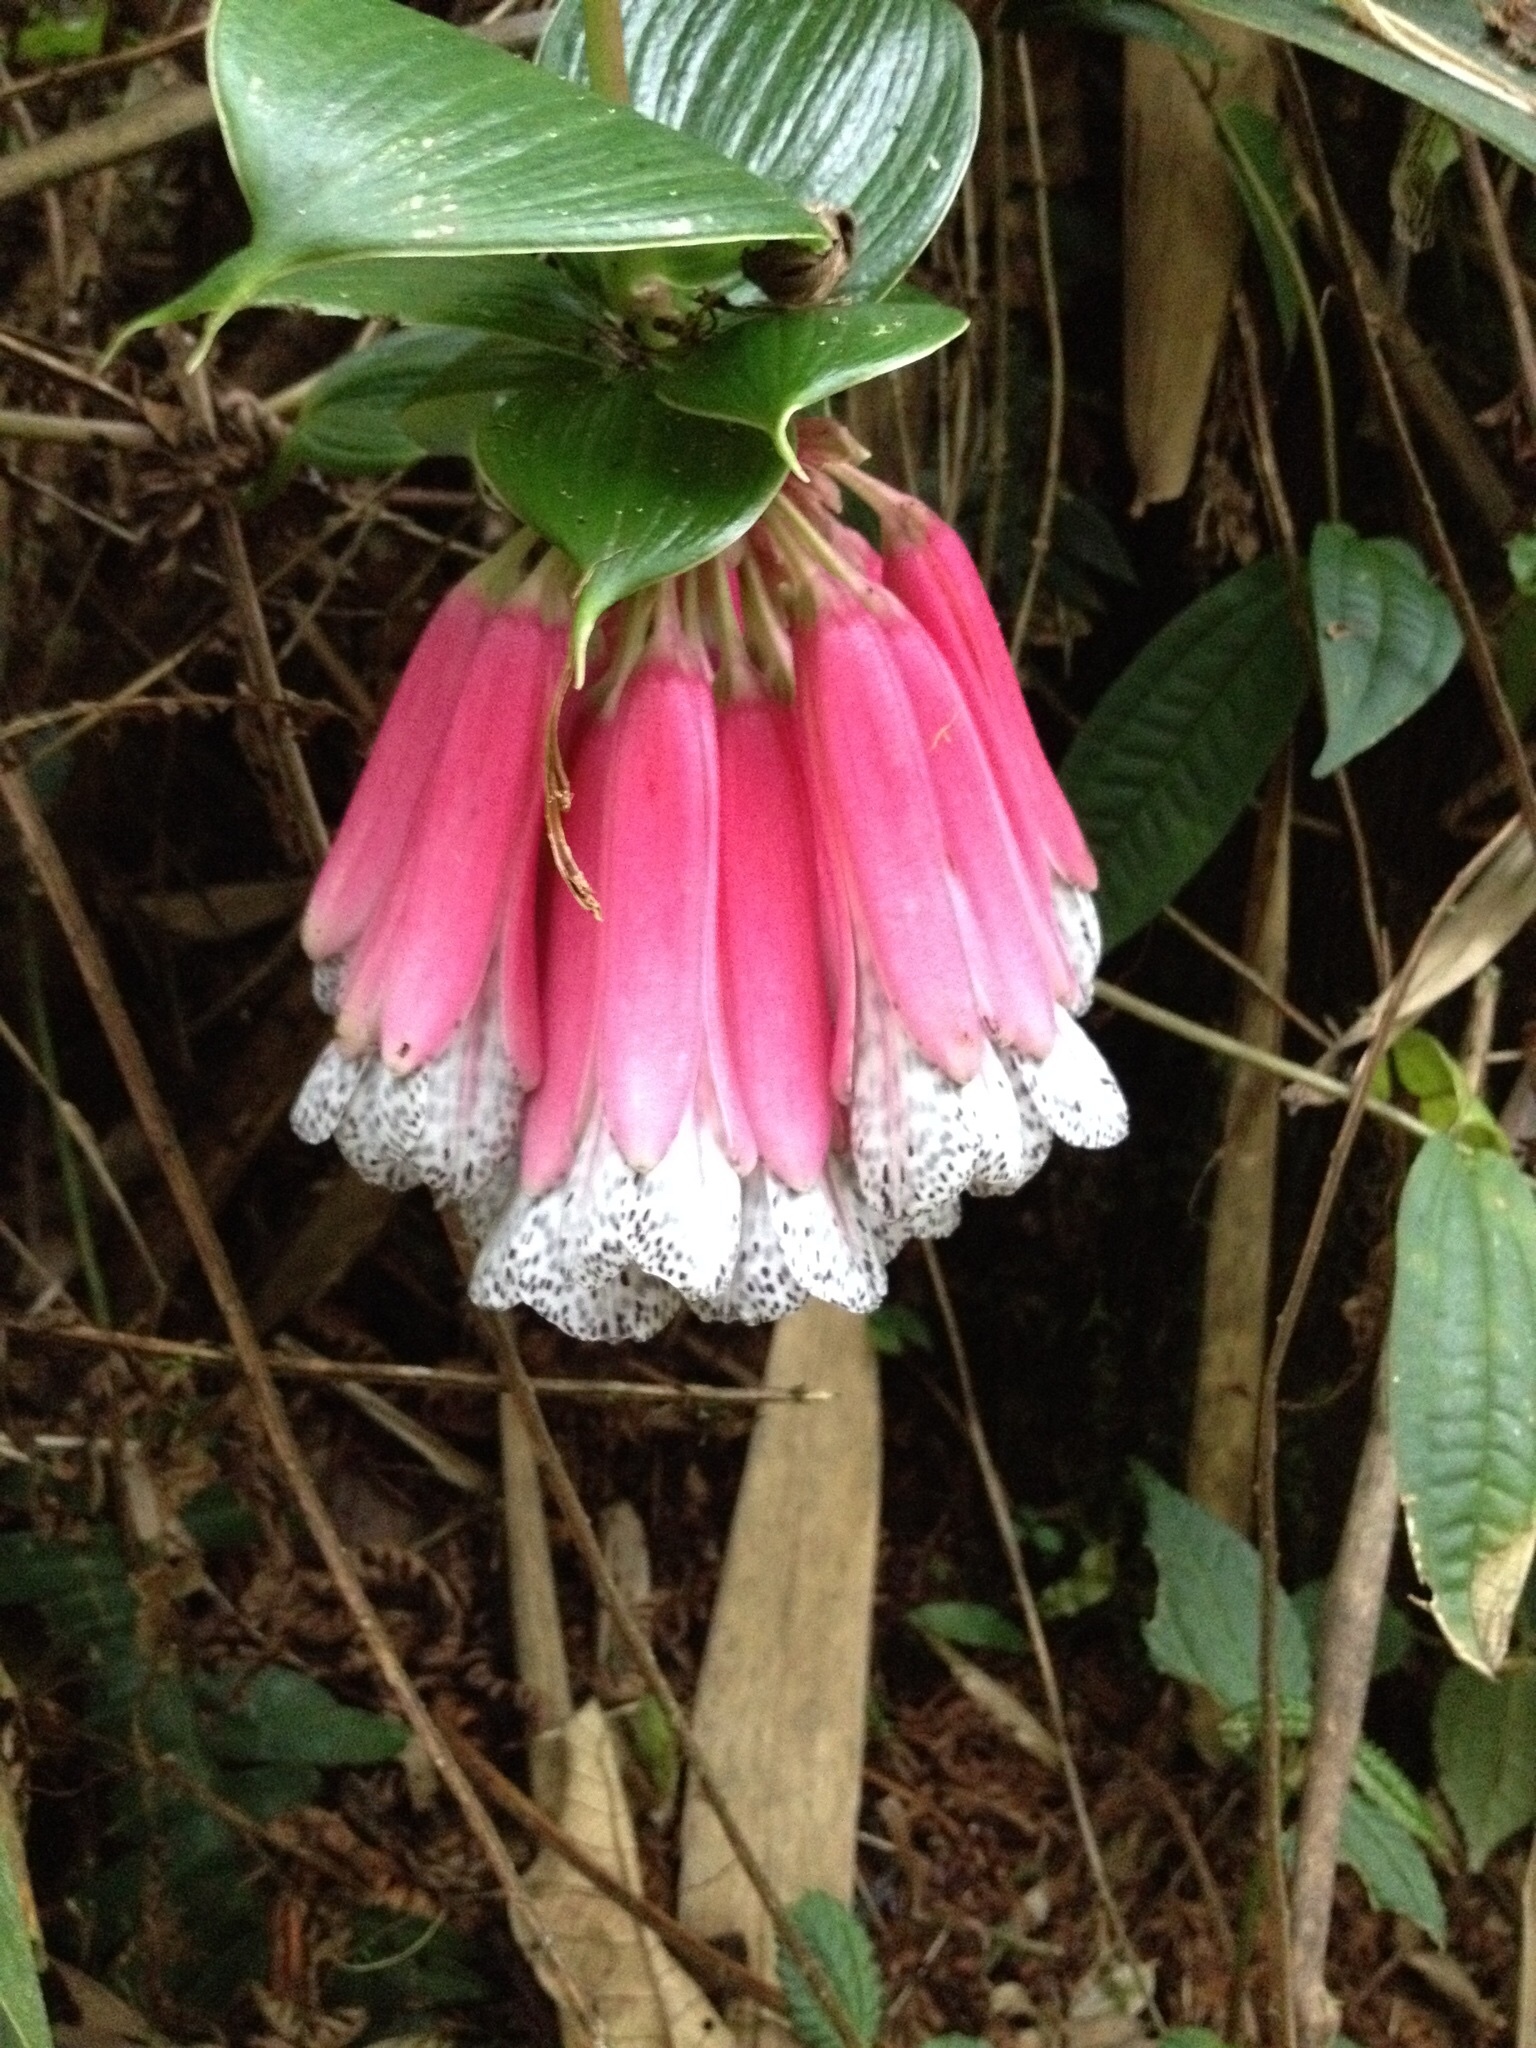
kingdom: Plantae
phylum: Tracheophyta
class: Liliopsida
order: Liliales
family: Alstroemeriaceae
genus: Bomarea
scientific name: Bomarea pardina
